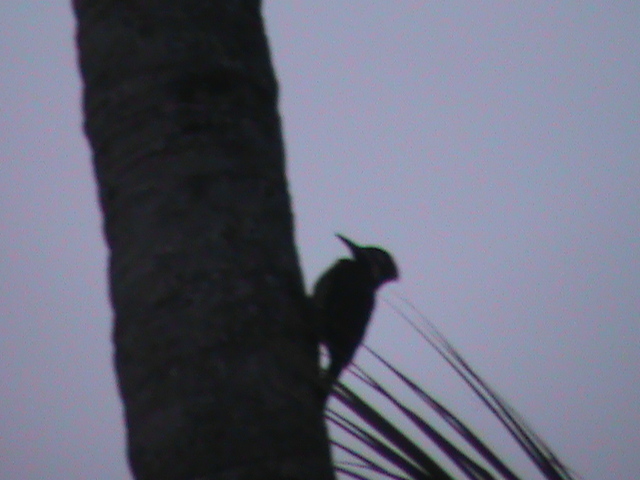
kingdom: Animalia
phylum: Chordata
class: Aves
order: Piciformes
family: Picidae
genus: Dinopium
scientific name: Dinopium benghalense
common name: Black-rumped flameback
